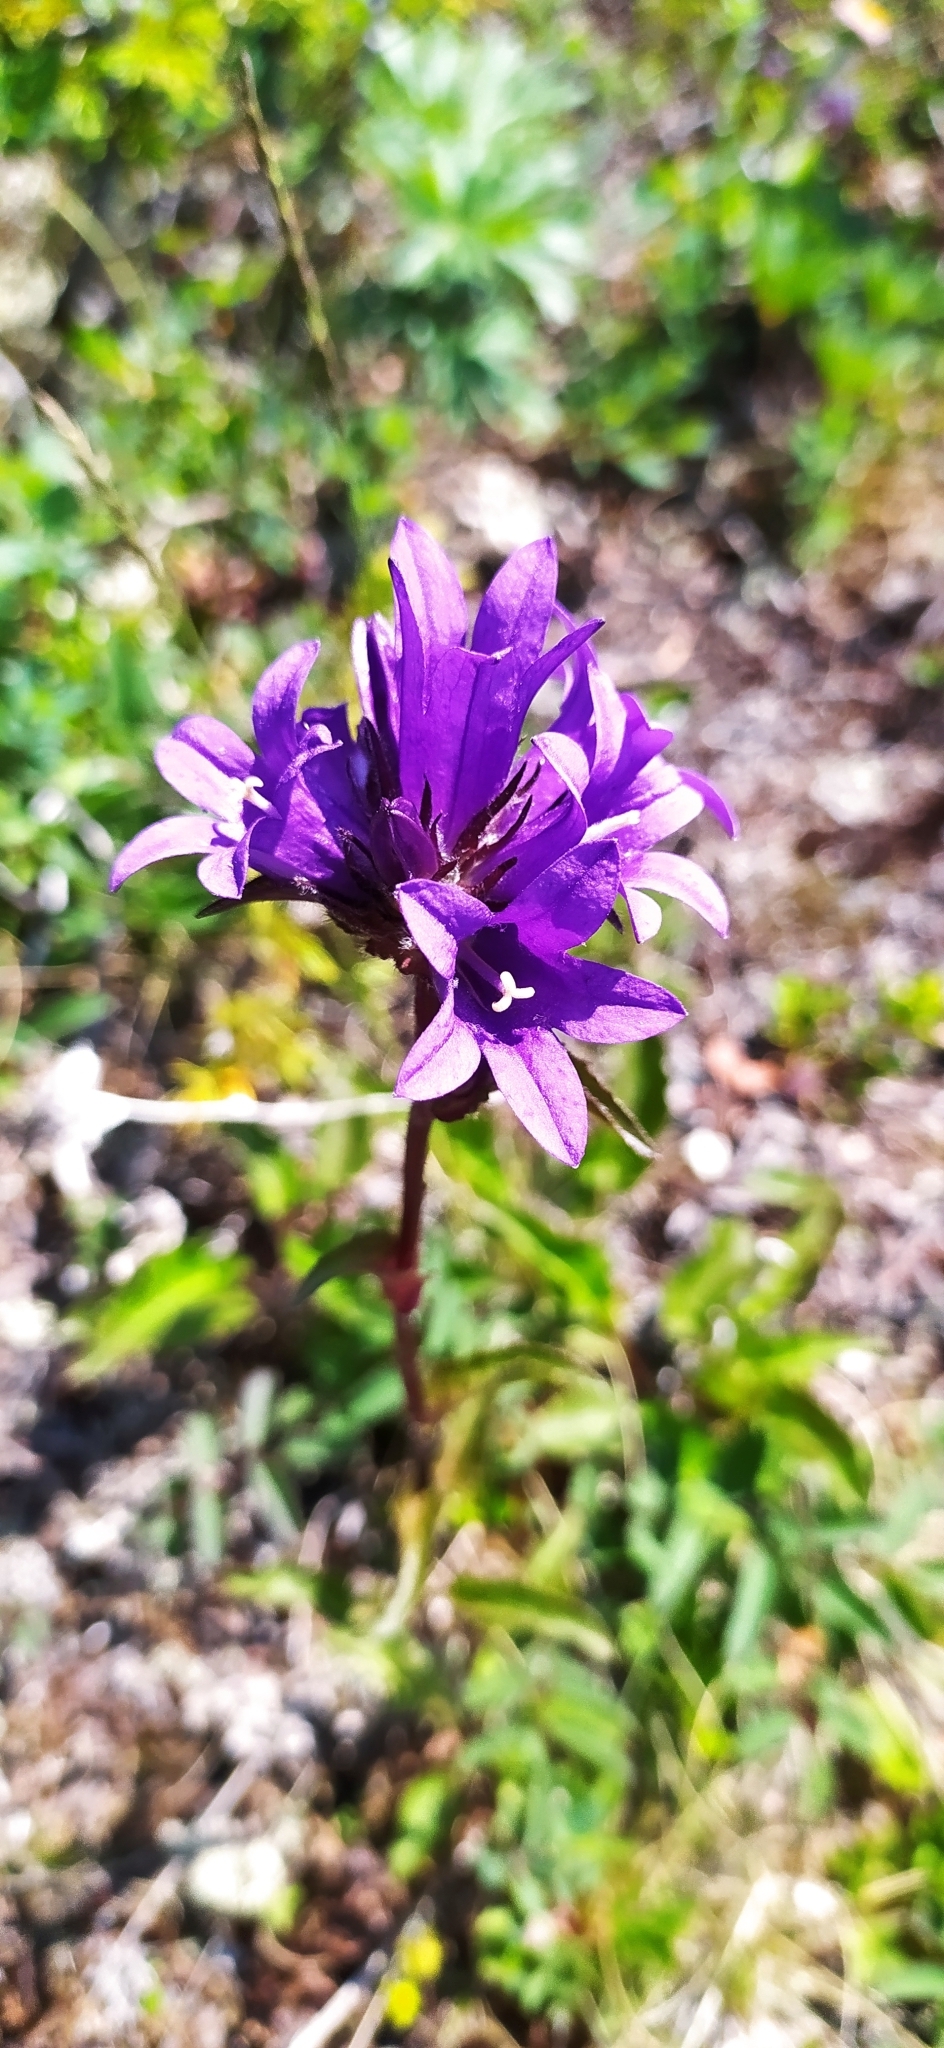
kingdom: Plantae
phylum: Tracheophyta
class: Magnoliopsida
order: Asterales
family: Campanulaceae
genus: Campanula
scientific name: Campanula glomerata
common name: Clustered bellflower
